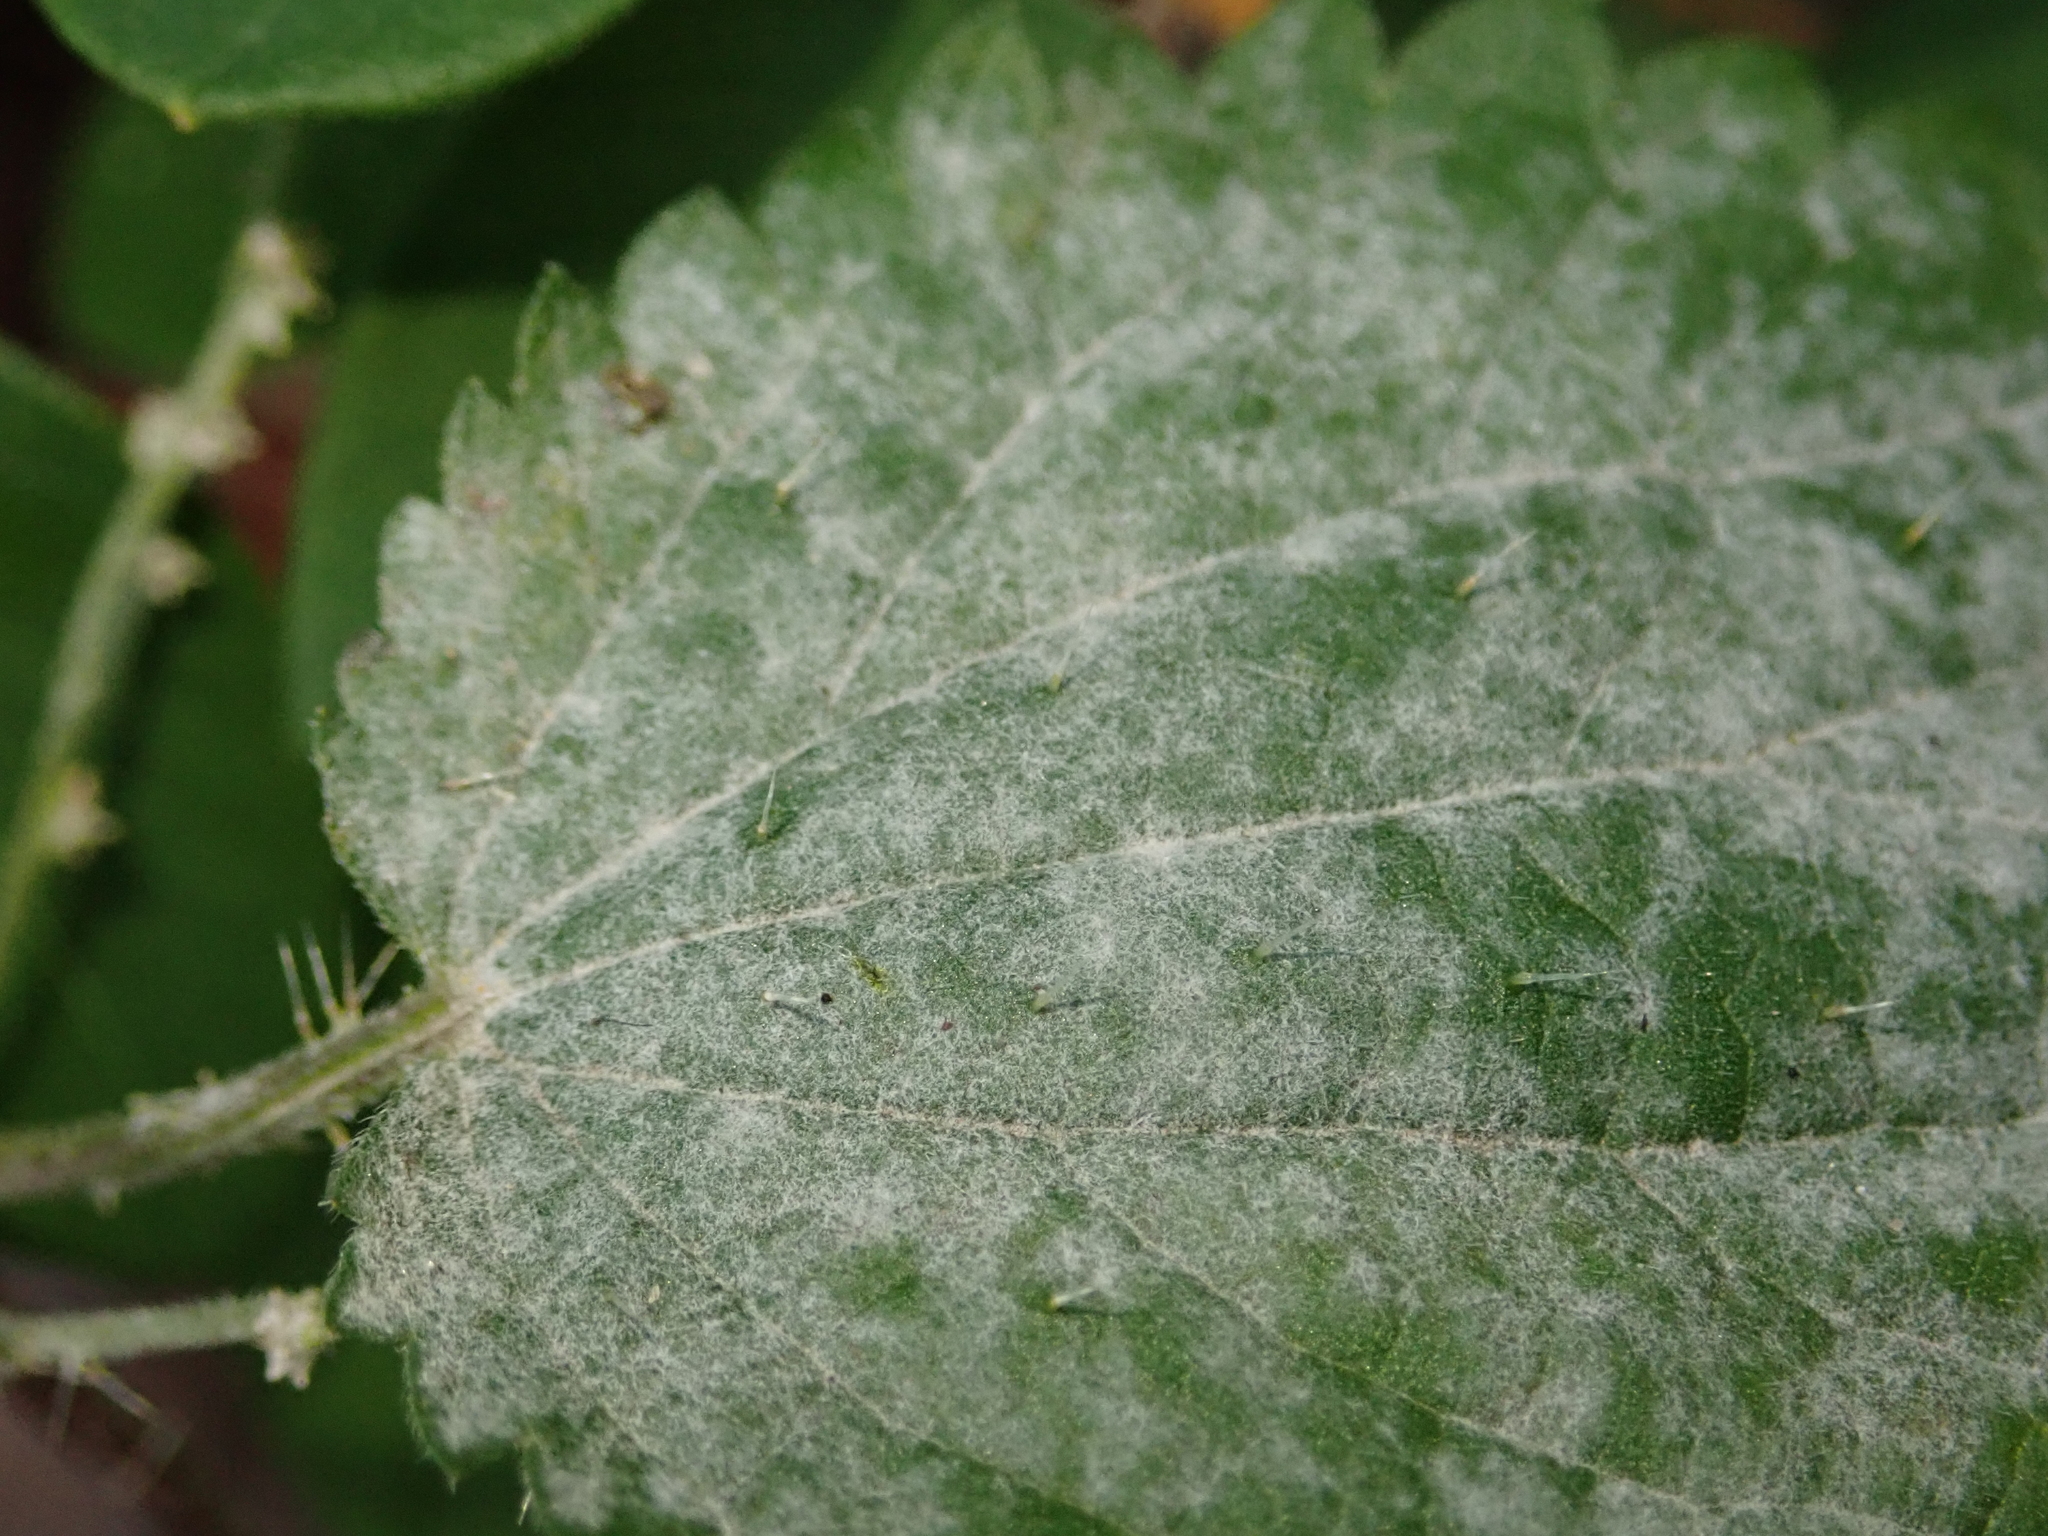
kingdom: Fungi
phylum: Ascomycota
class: Leotiomycetes
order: Helotiales
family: Erysiphaceae
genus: Erysiphe
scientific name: Erysiphe urticae
